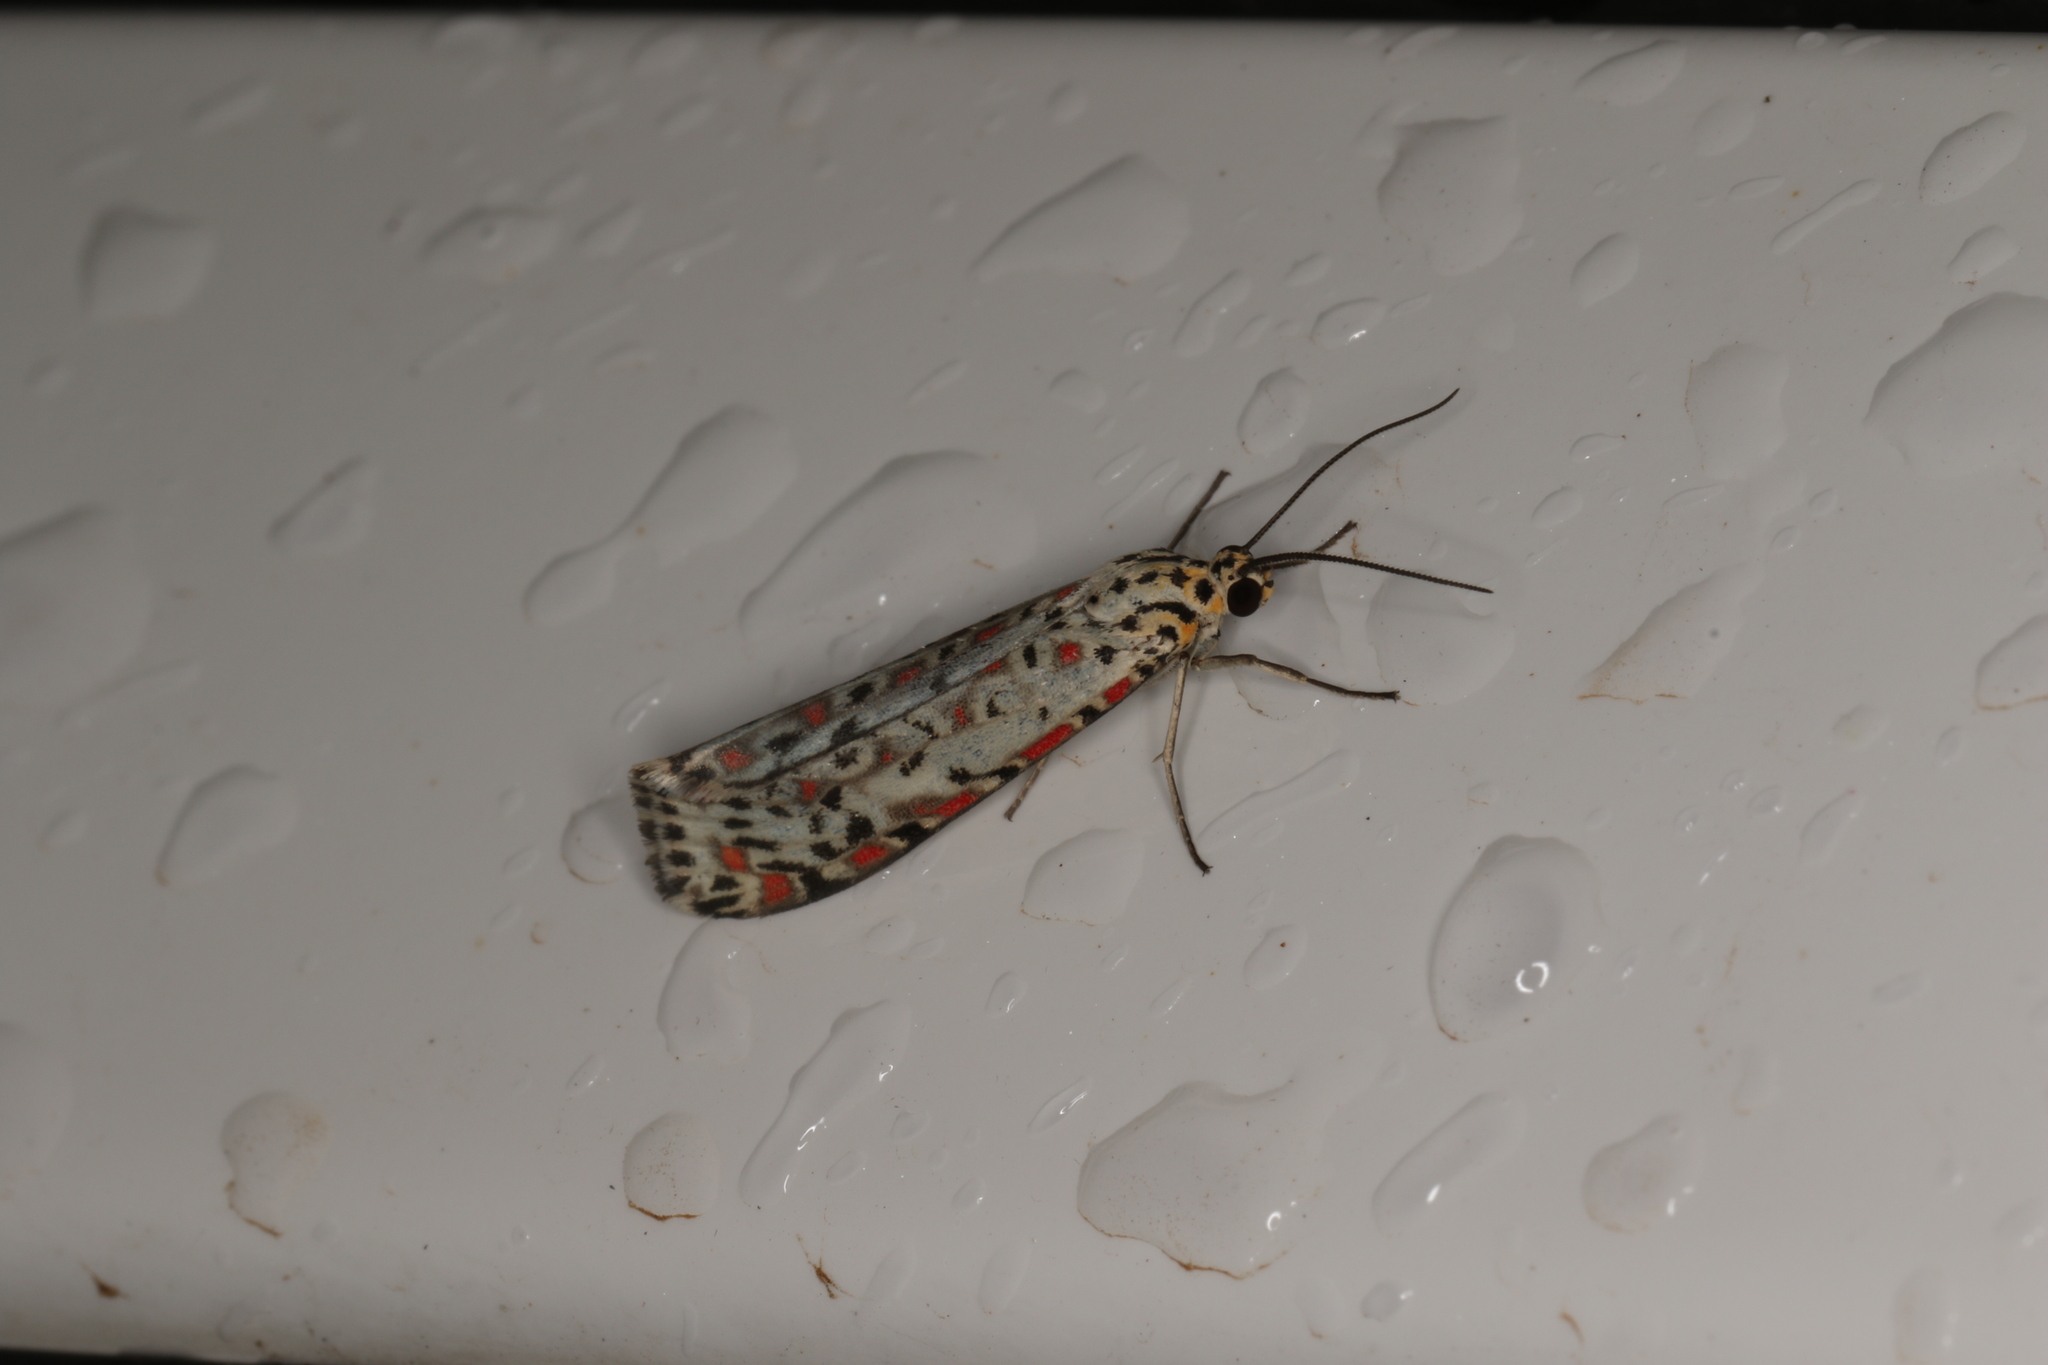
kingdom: Animalia
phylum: Arthropoda
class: Insecta
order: Lepidoptera
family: Erebidae
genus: Utetheisa
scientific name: Utetheisa pulchelloides
